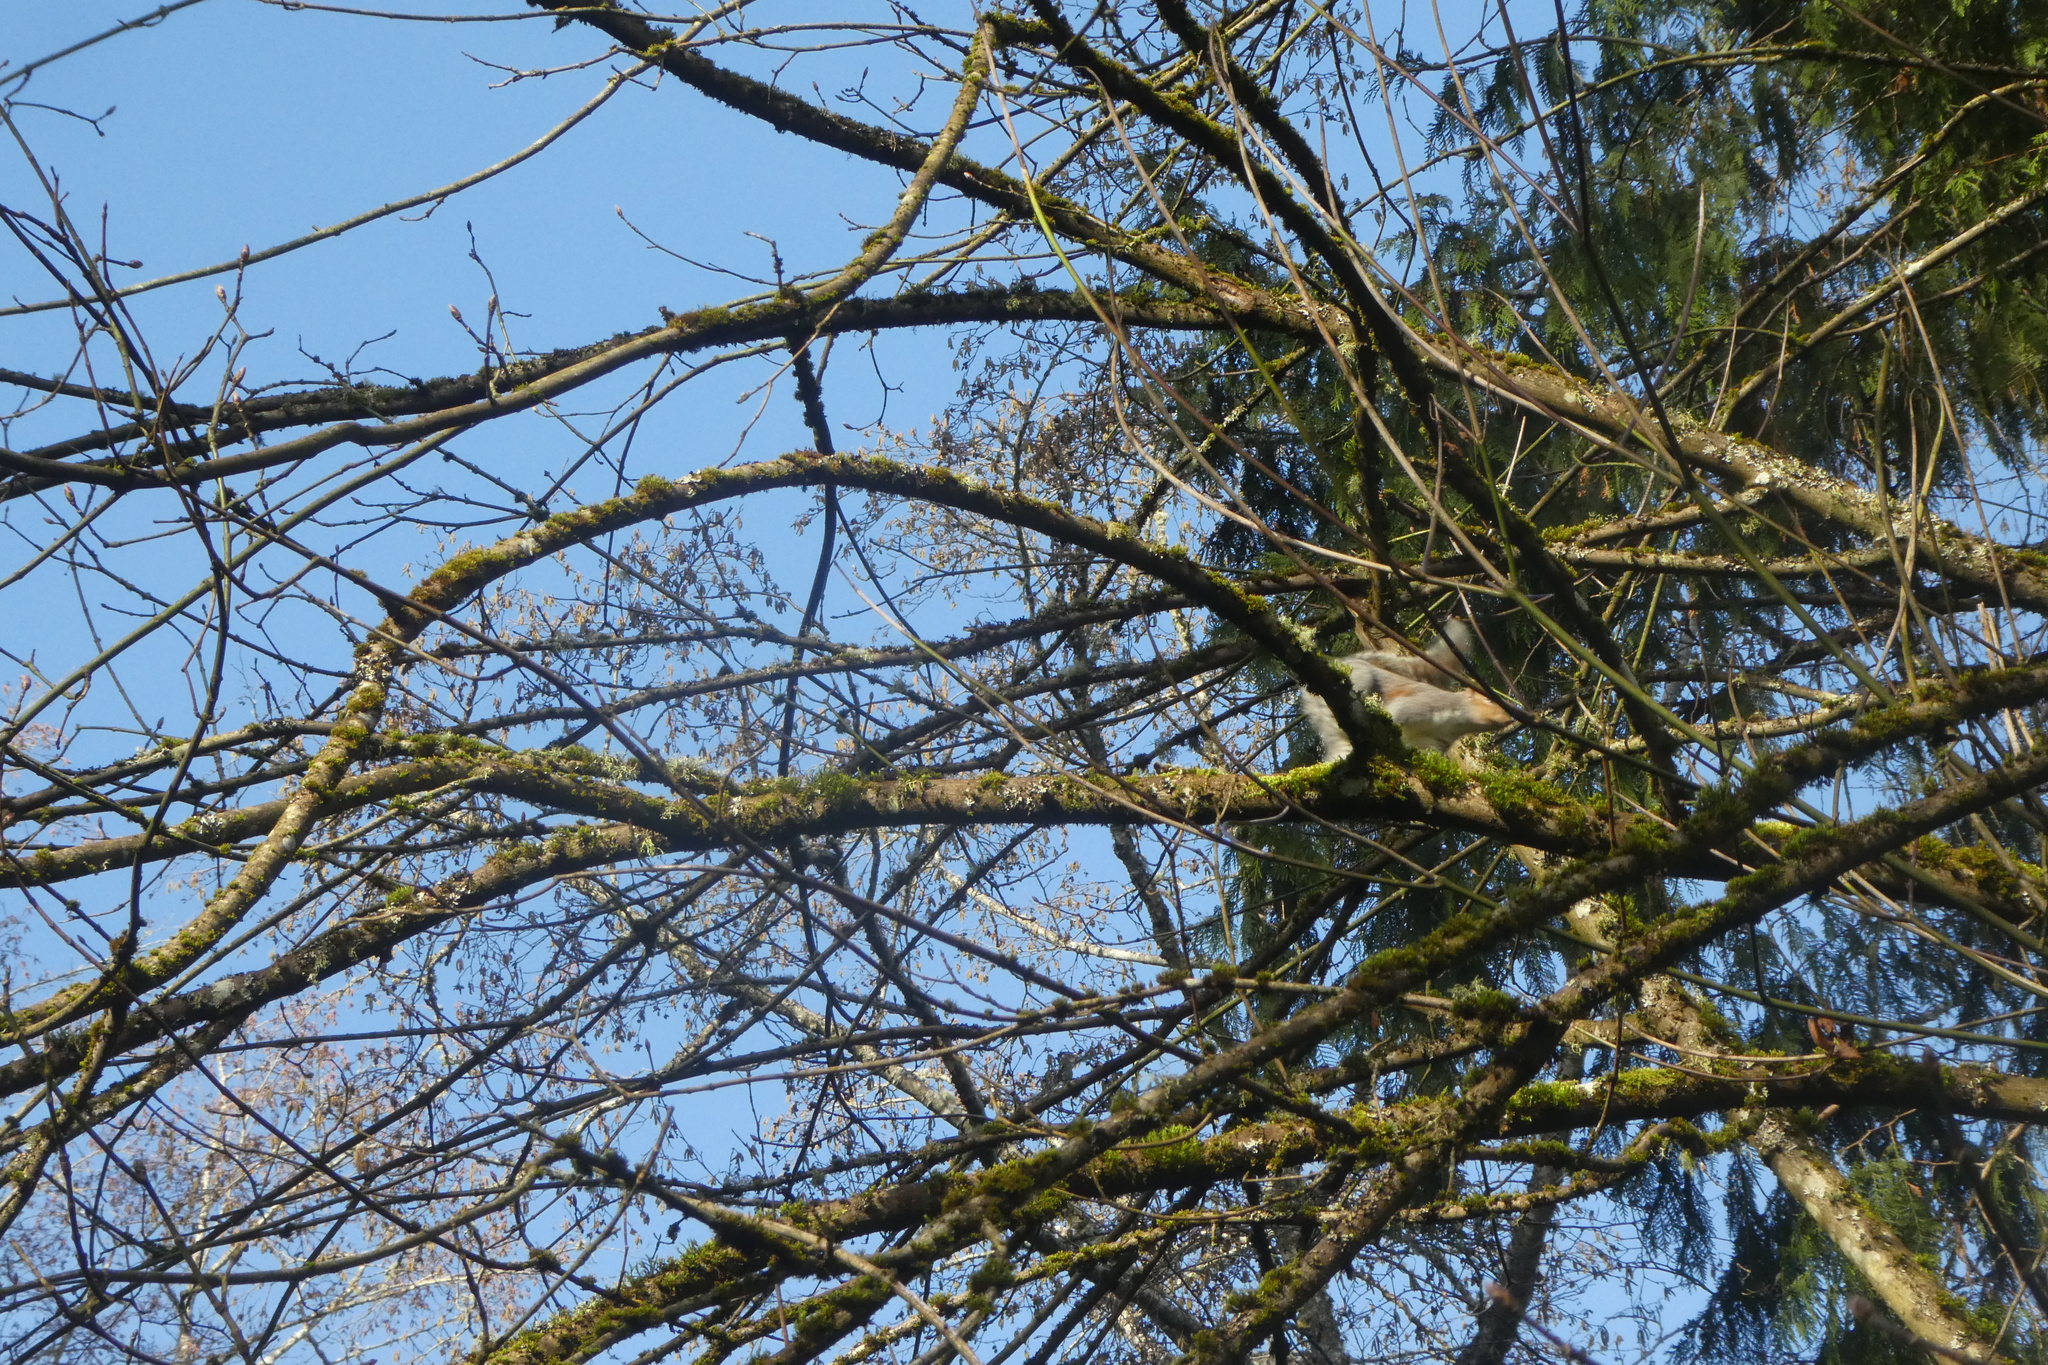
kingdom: Animalia
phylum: Chordata
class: Mammalia
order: Rodentia
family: Sciuridae
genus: Sciurus
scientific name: Sciurus carolinensis
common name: Eastern gray squirrel
